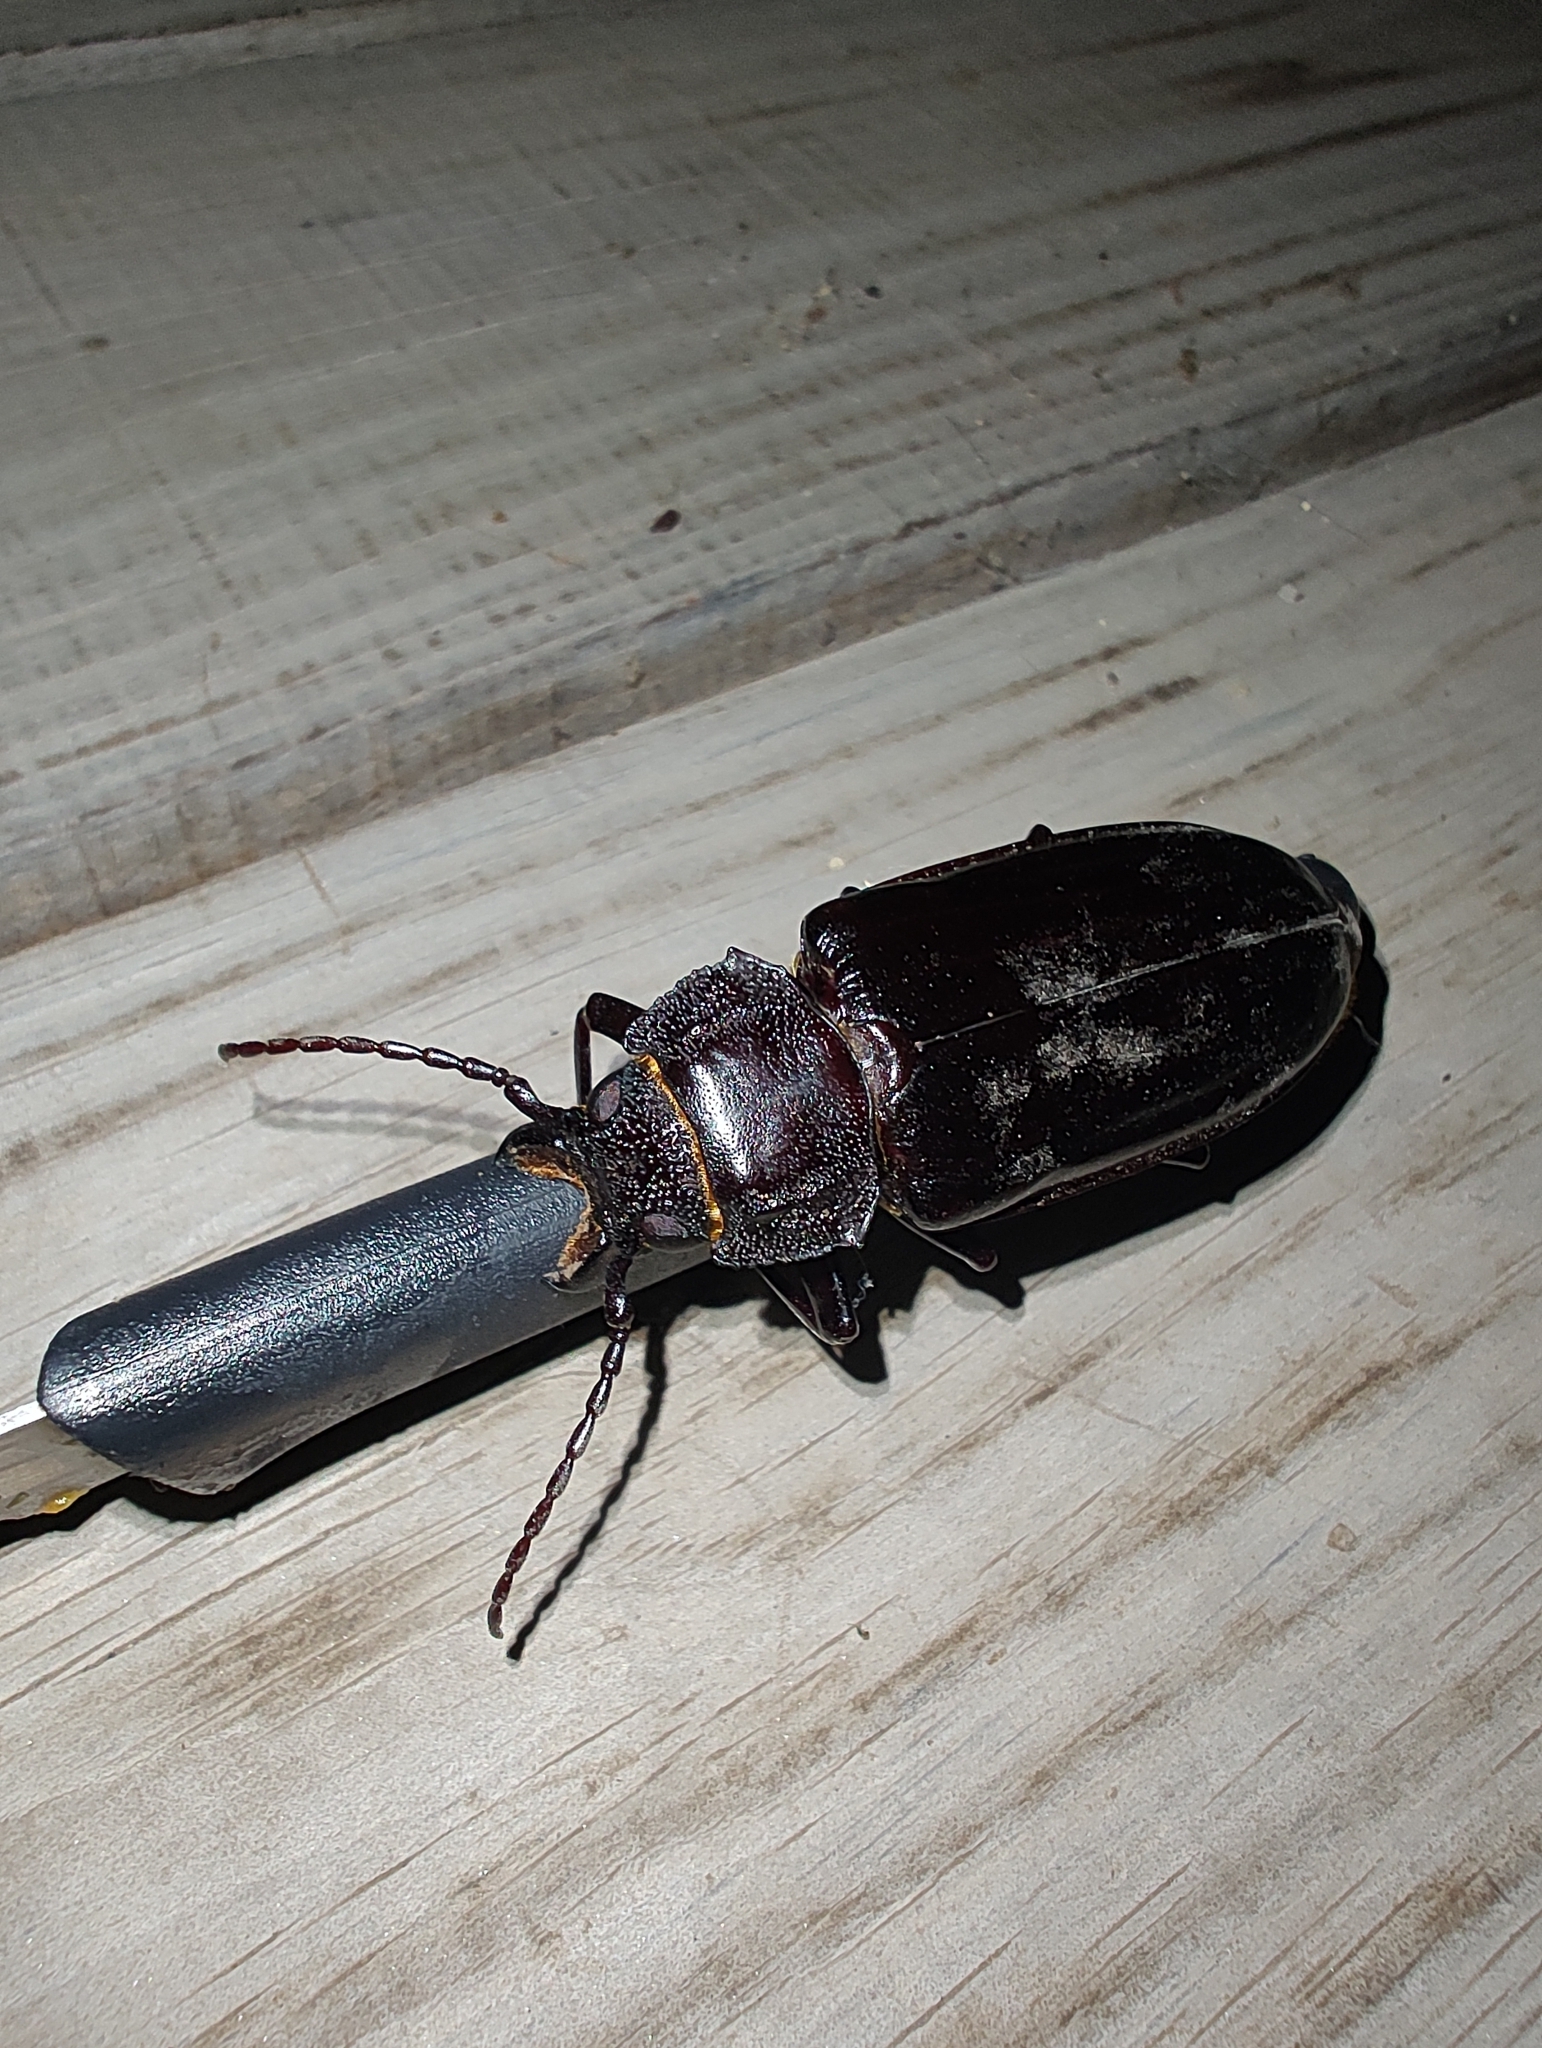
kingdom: Animalia
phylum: Arthropoda
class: Insecta
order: Coleoptera
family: Cerambycidae
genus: Mallodon
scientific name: Mallodon dasystomum
